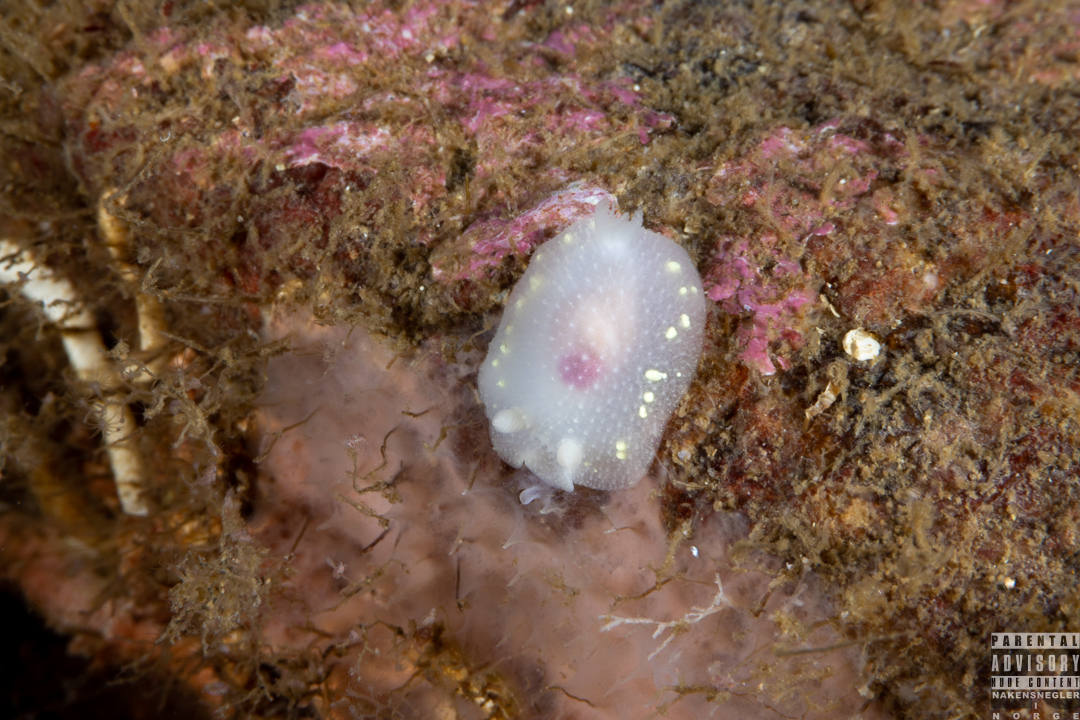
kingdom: Animalia
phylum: Mollusca
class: Gastropoda
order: Nudibranchia
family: Cadlinidae
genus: Cadlina
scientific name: Cadlina laevis
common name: White atlantic cadlina
